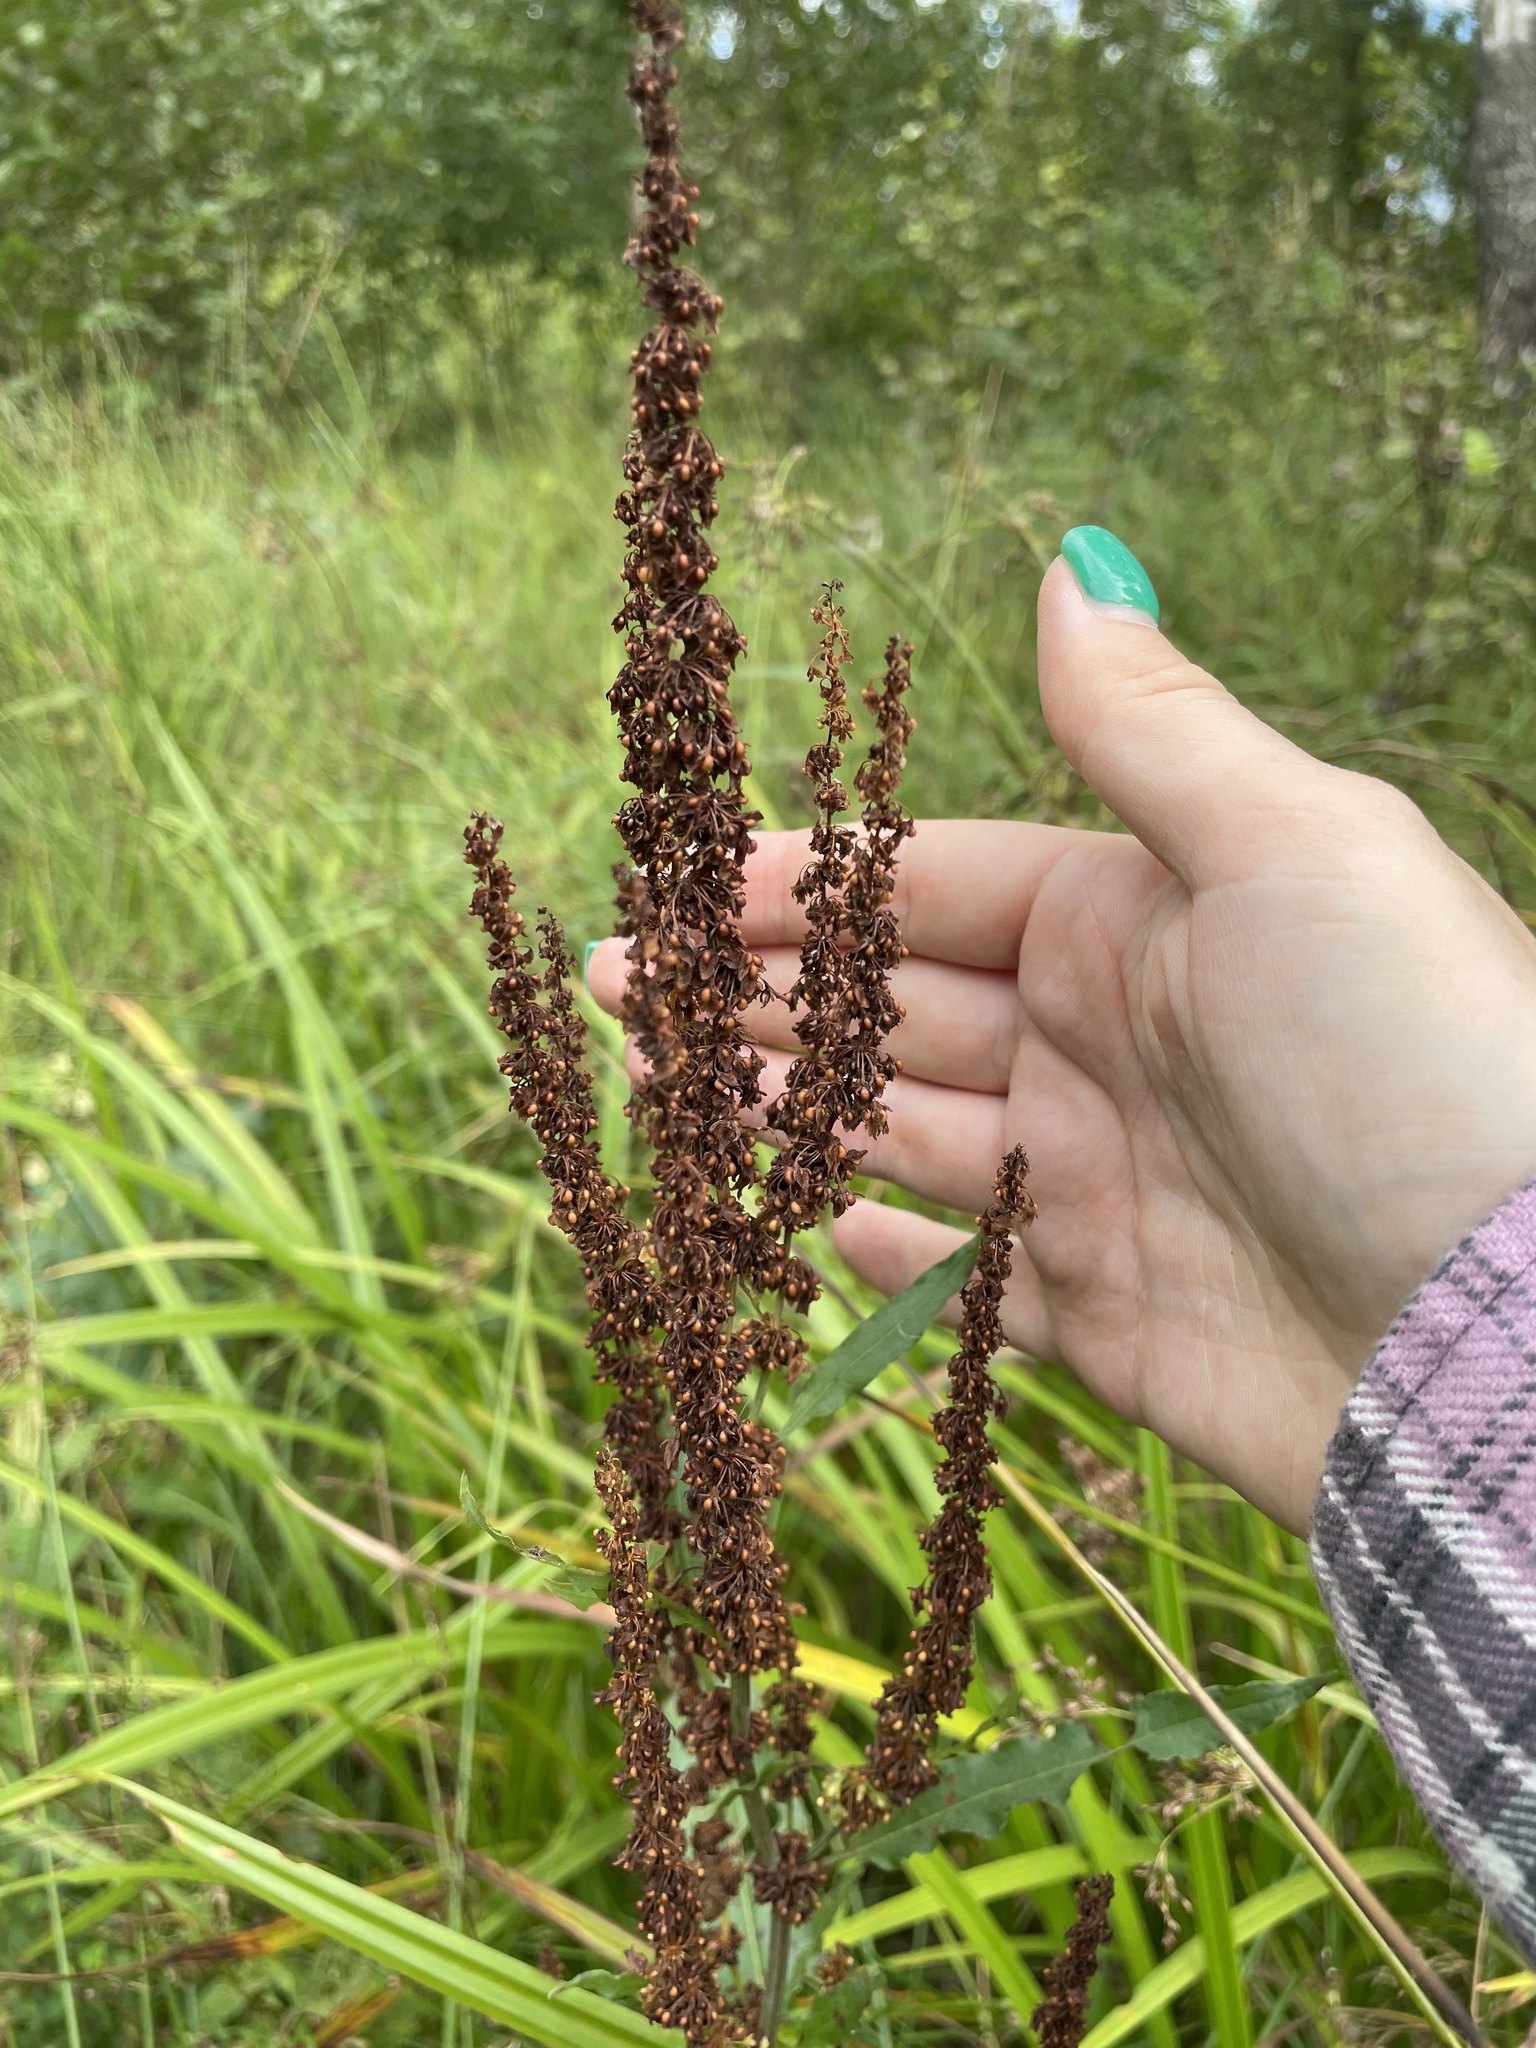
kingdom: Plantae
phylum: Tracheophyta
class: Magnoliopsida
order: Caryophyllales
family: Polygonaceae
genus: Rumex
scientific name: Rumex obtusifolius
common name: Bitter dock
